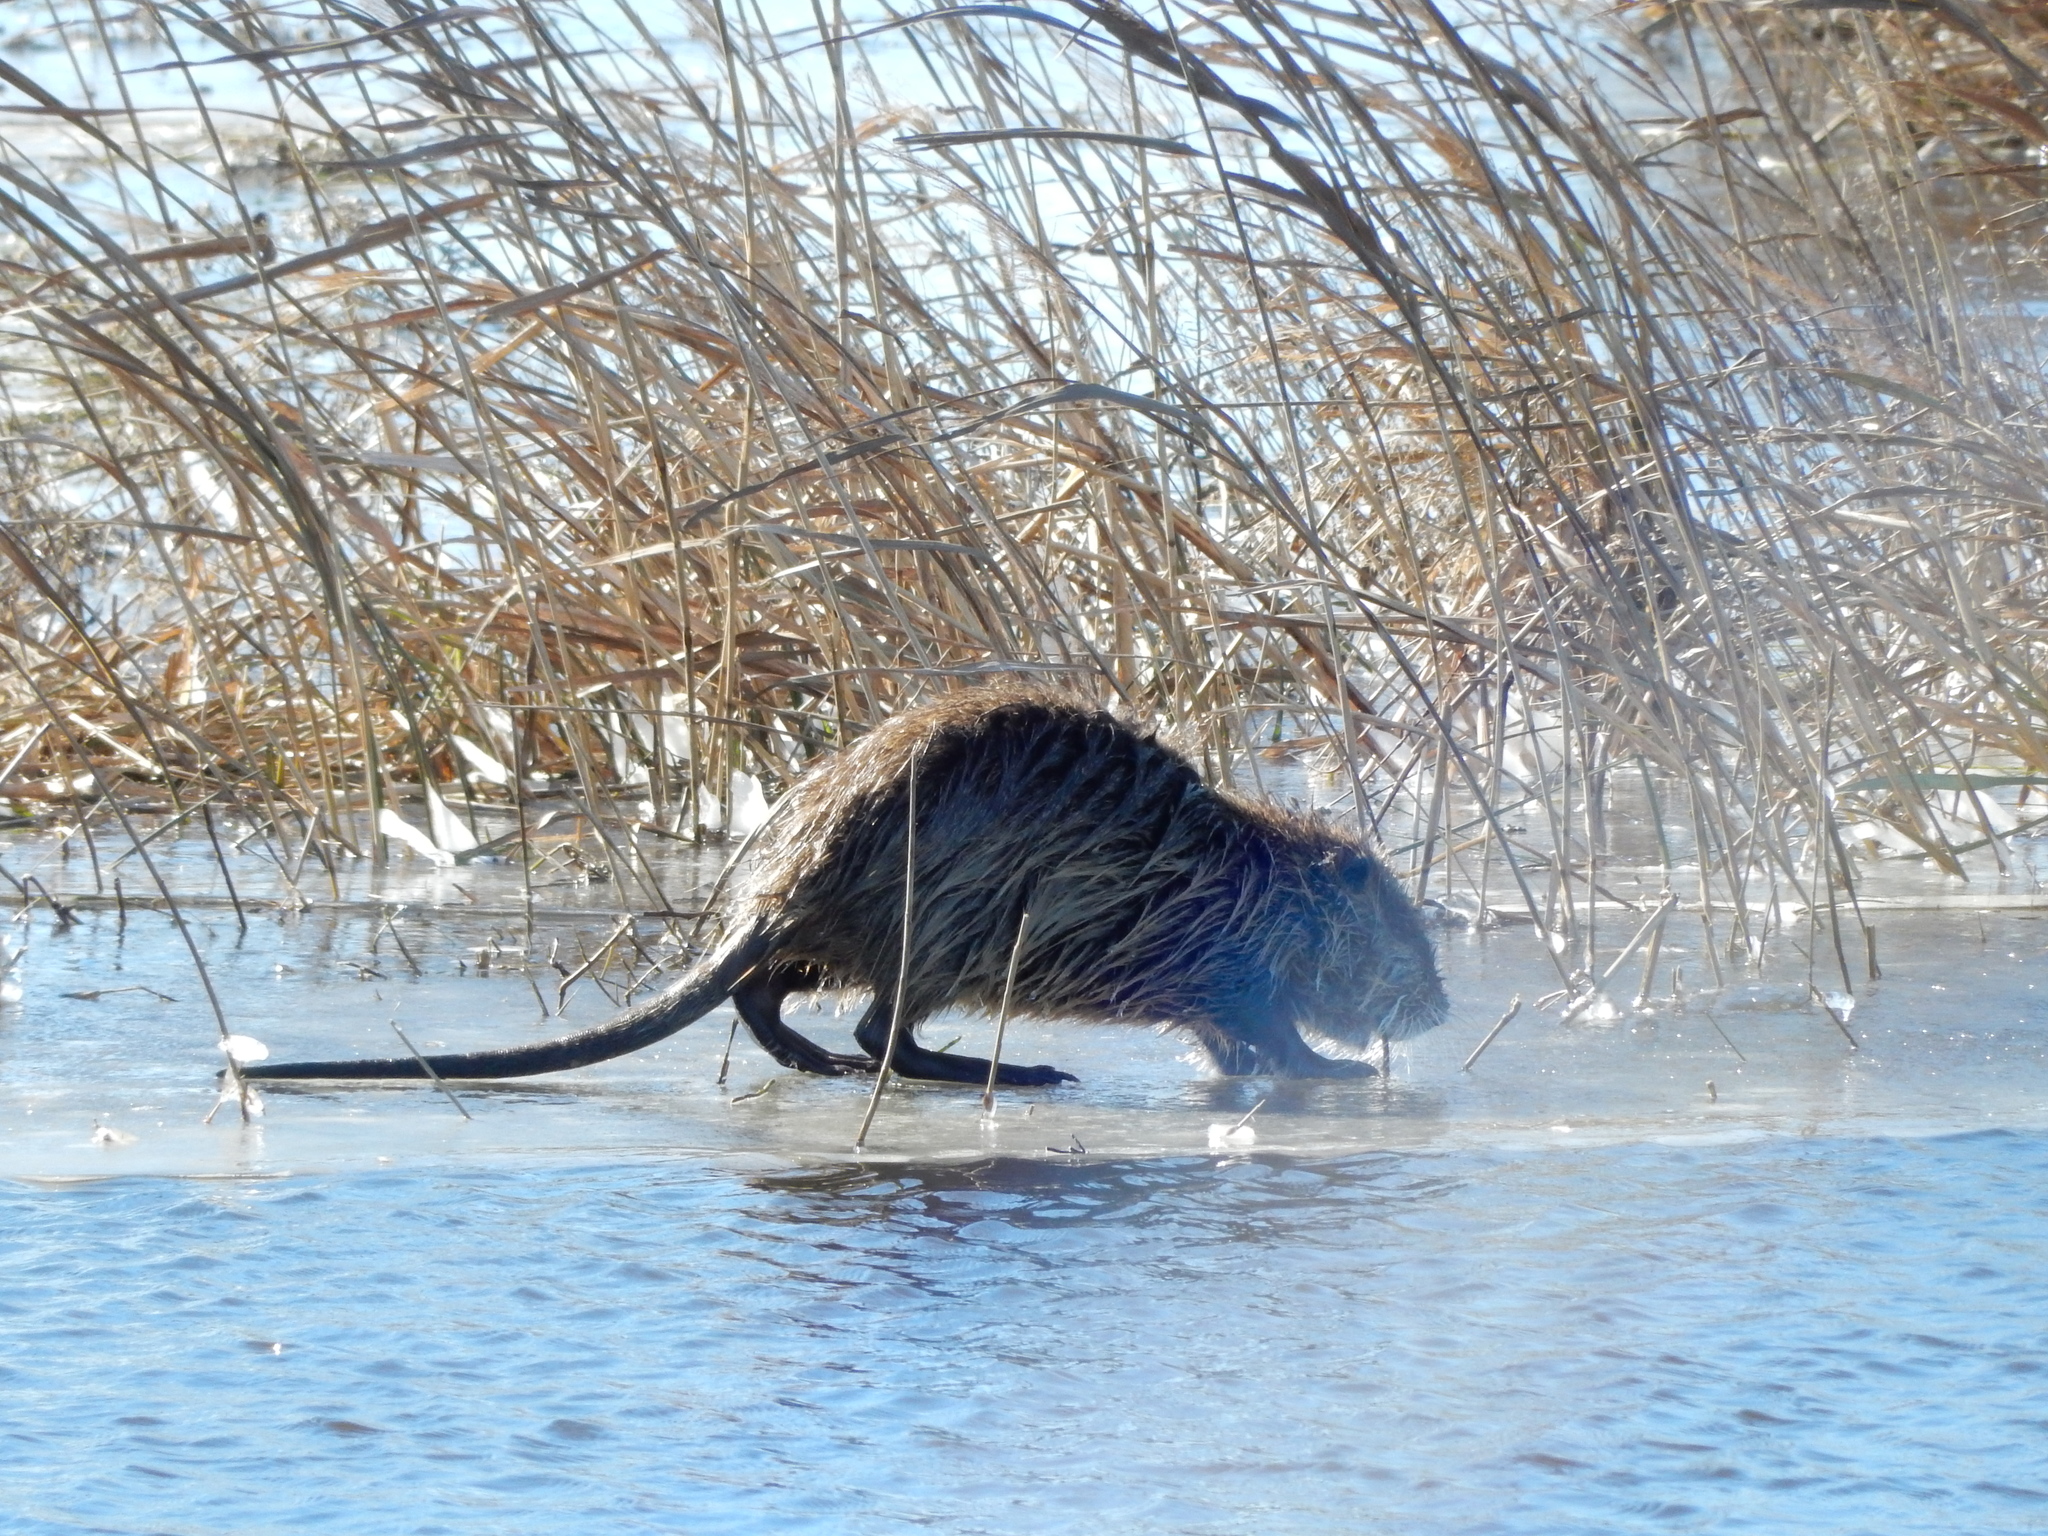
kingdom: Animalia
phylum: Chordata
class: Mammalia
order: Rodentia
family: Myocastoridae
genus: Myocastor
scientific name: Myocastor coypus
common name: Coypu
